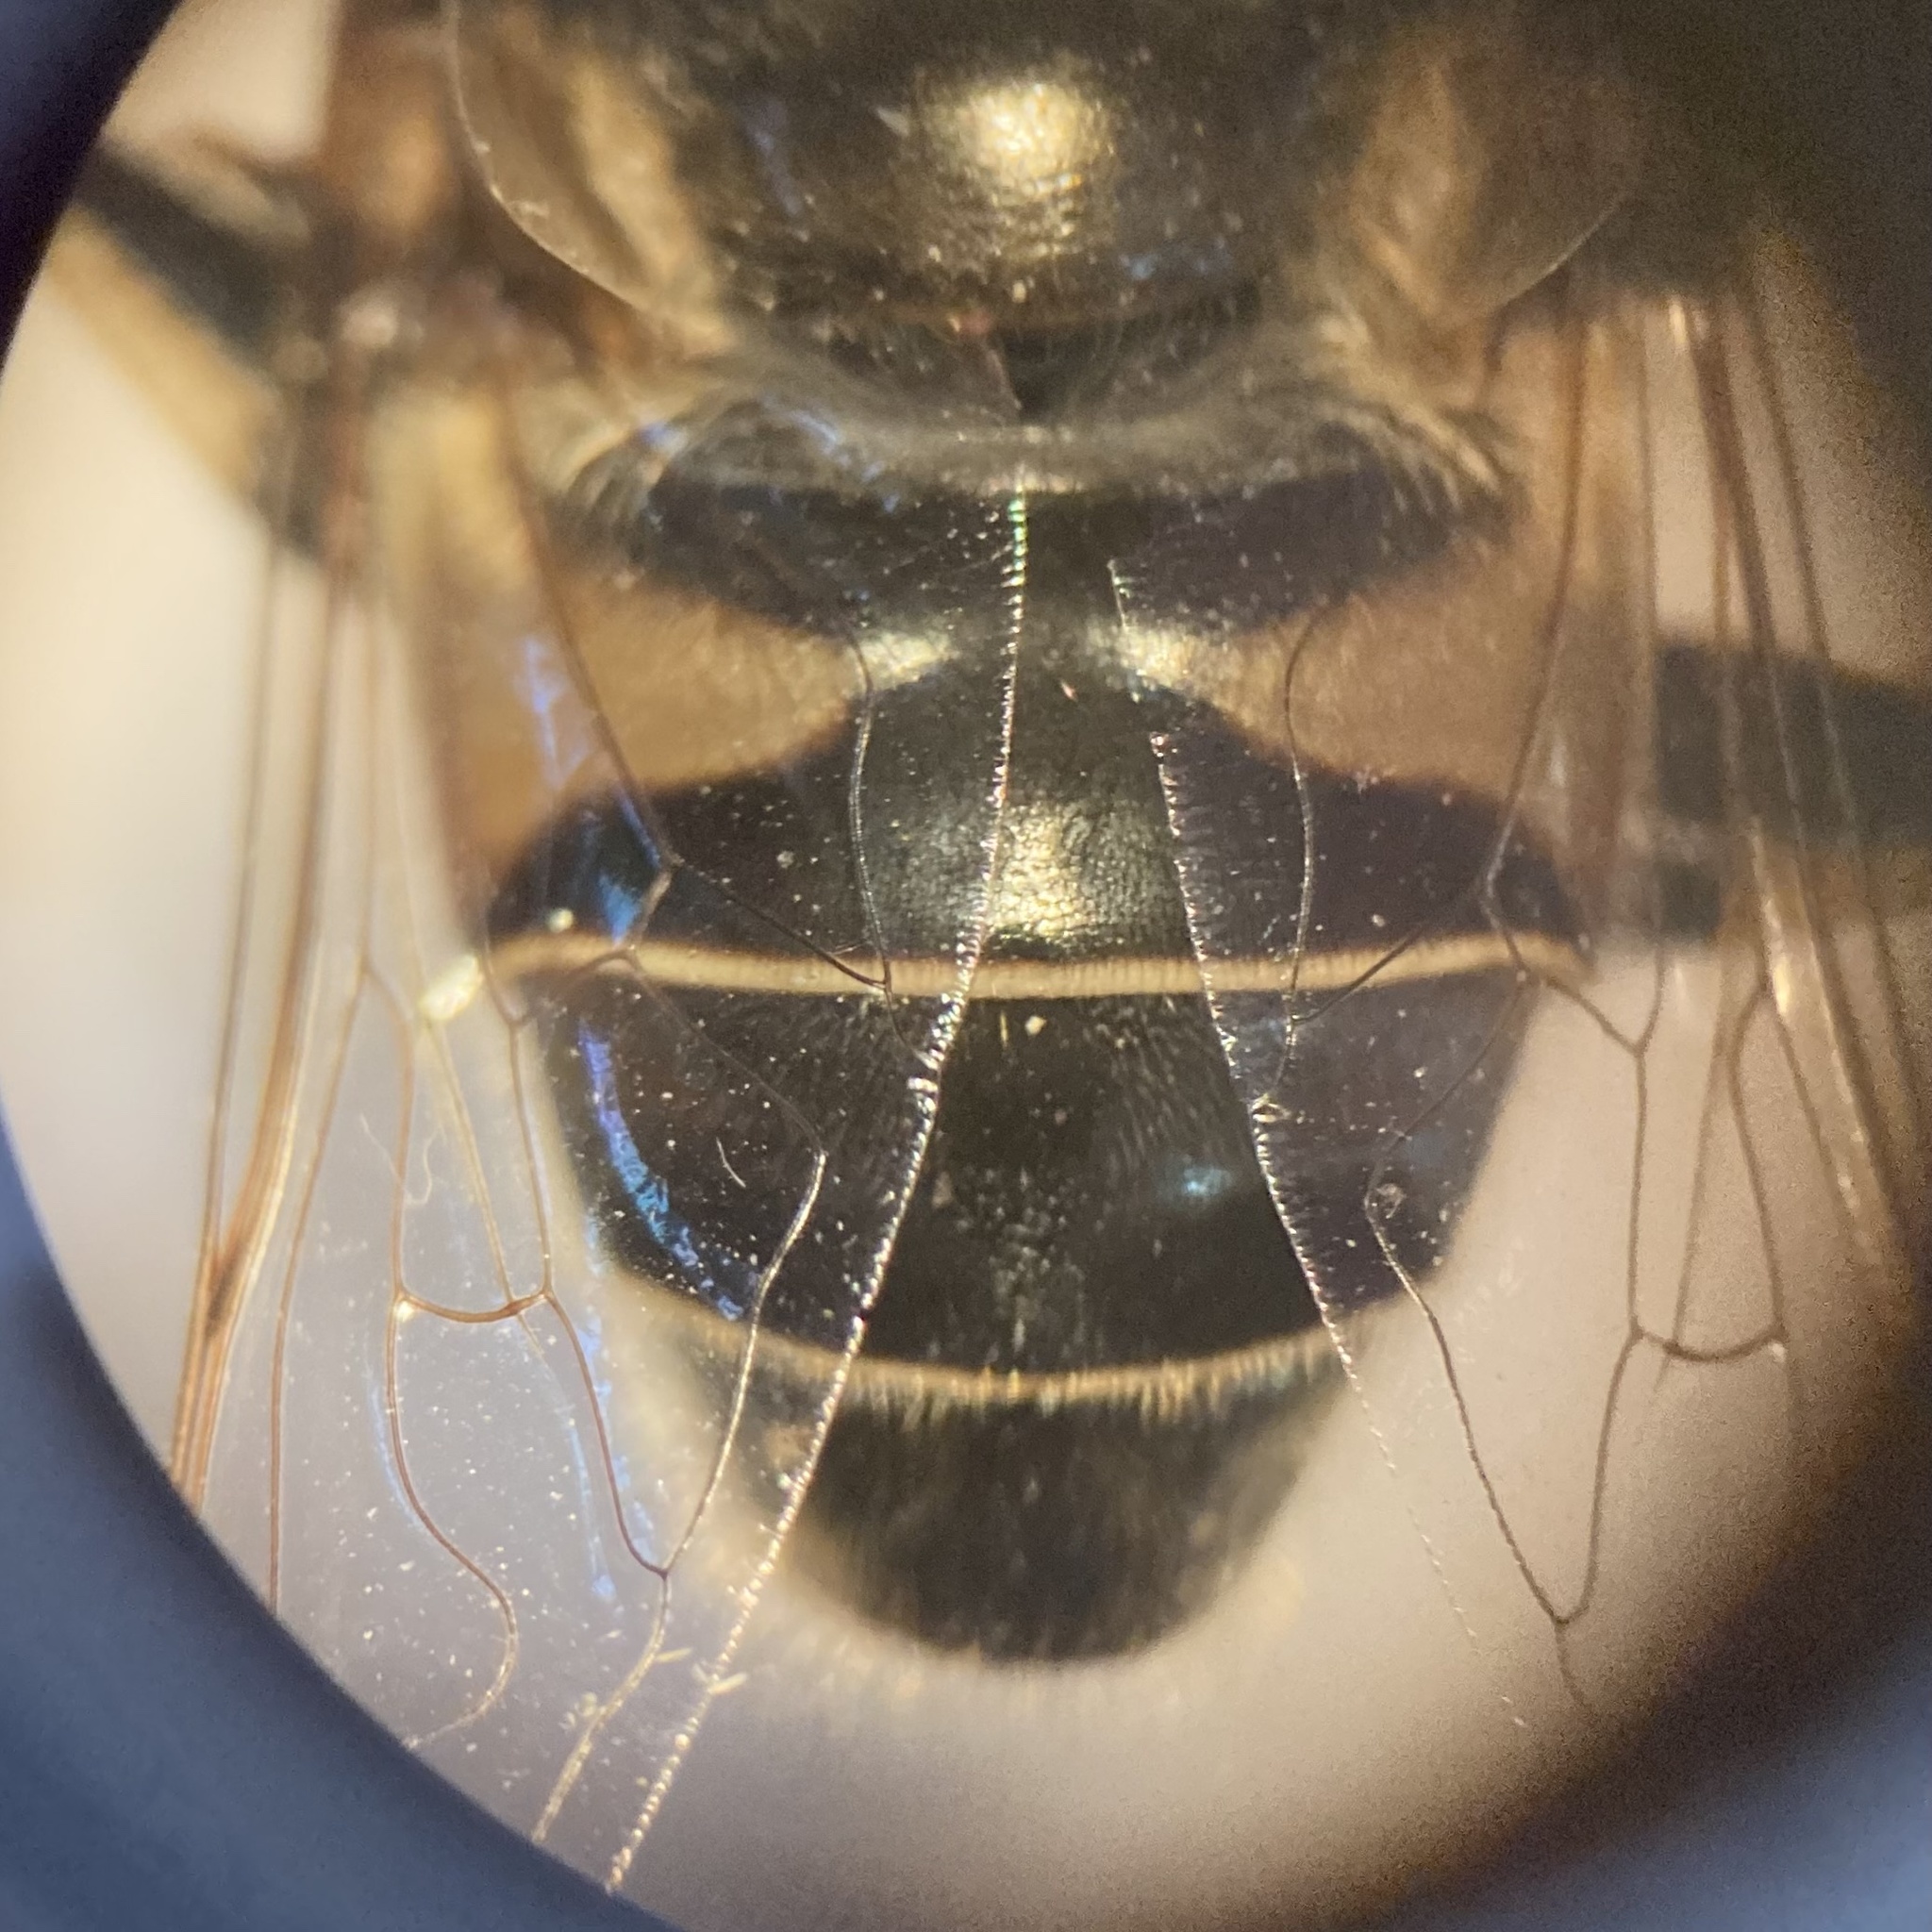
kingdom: Animalia
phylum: Arthropoda
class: Insecta
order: Diptera
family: Syrphidae
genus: Eristalis
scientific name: Eristalis dimidiata
